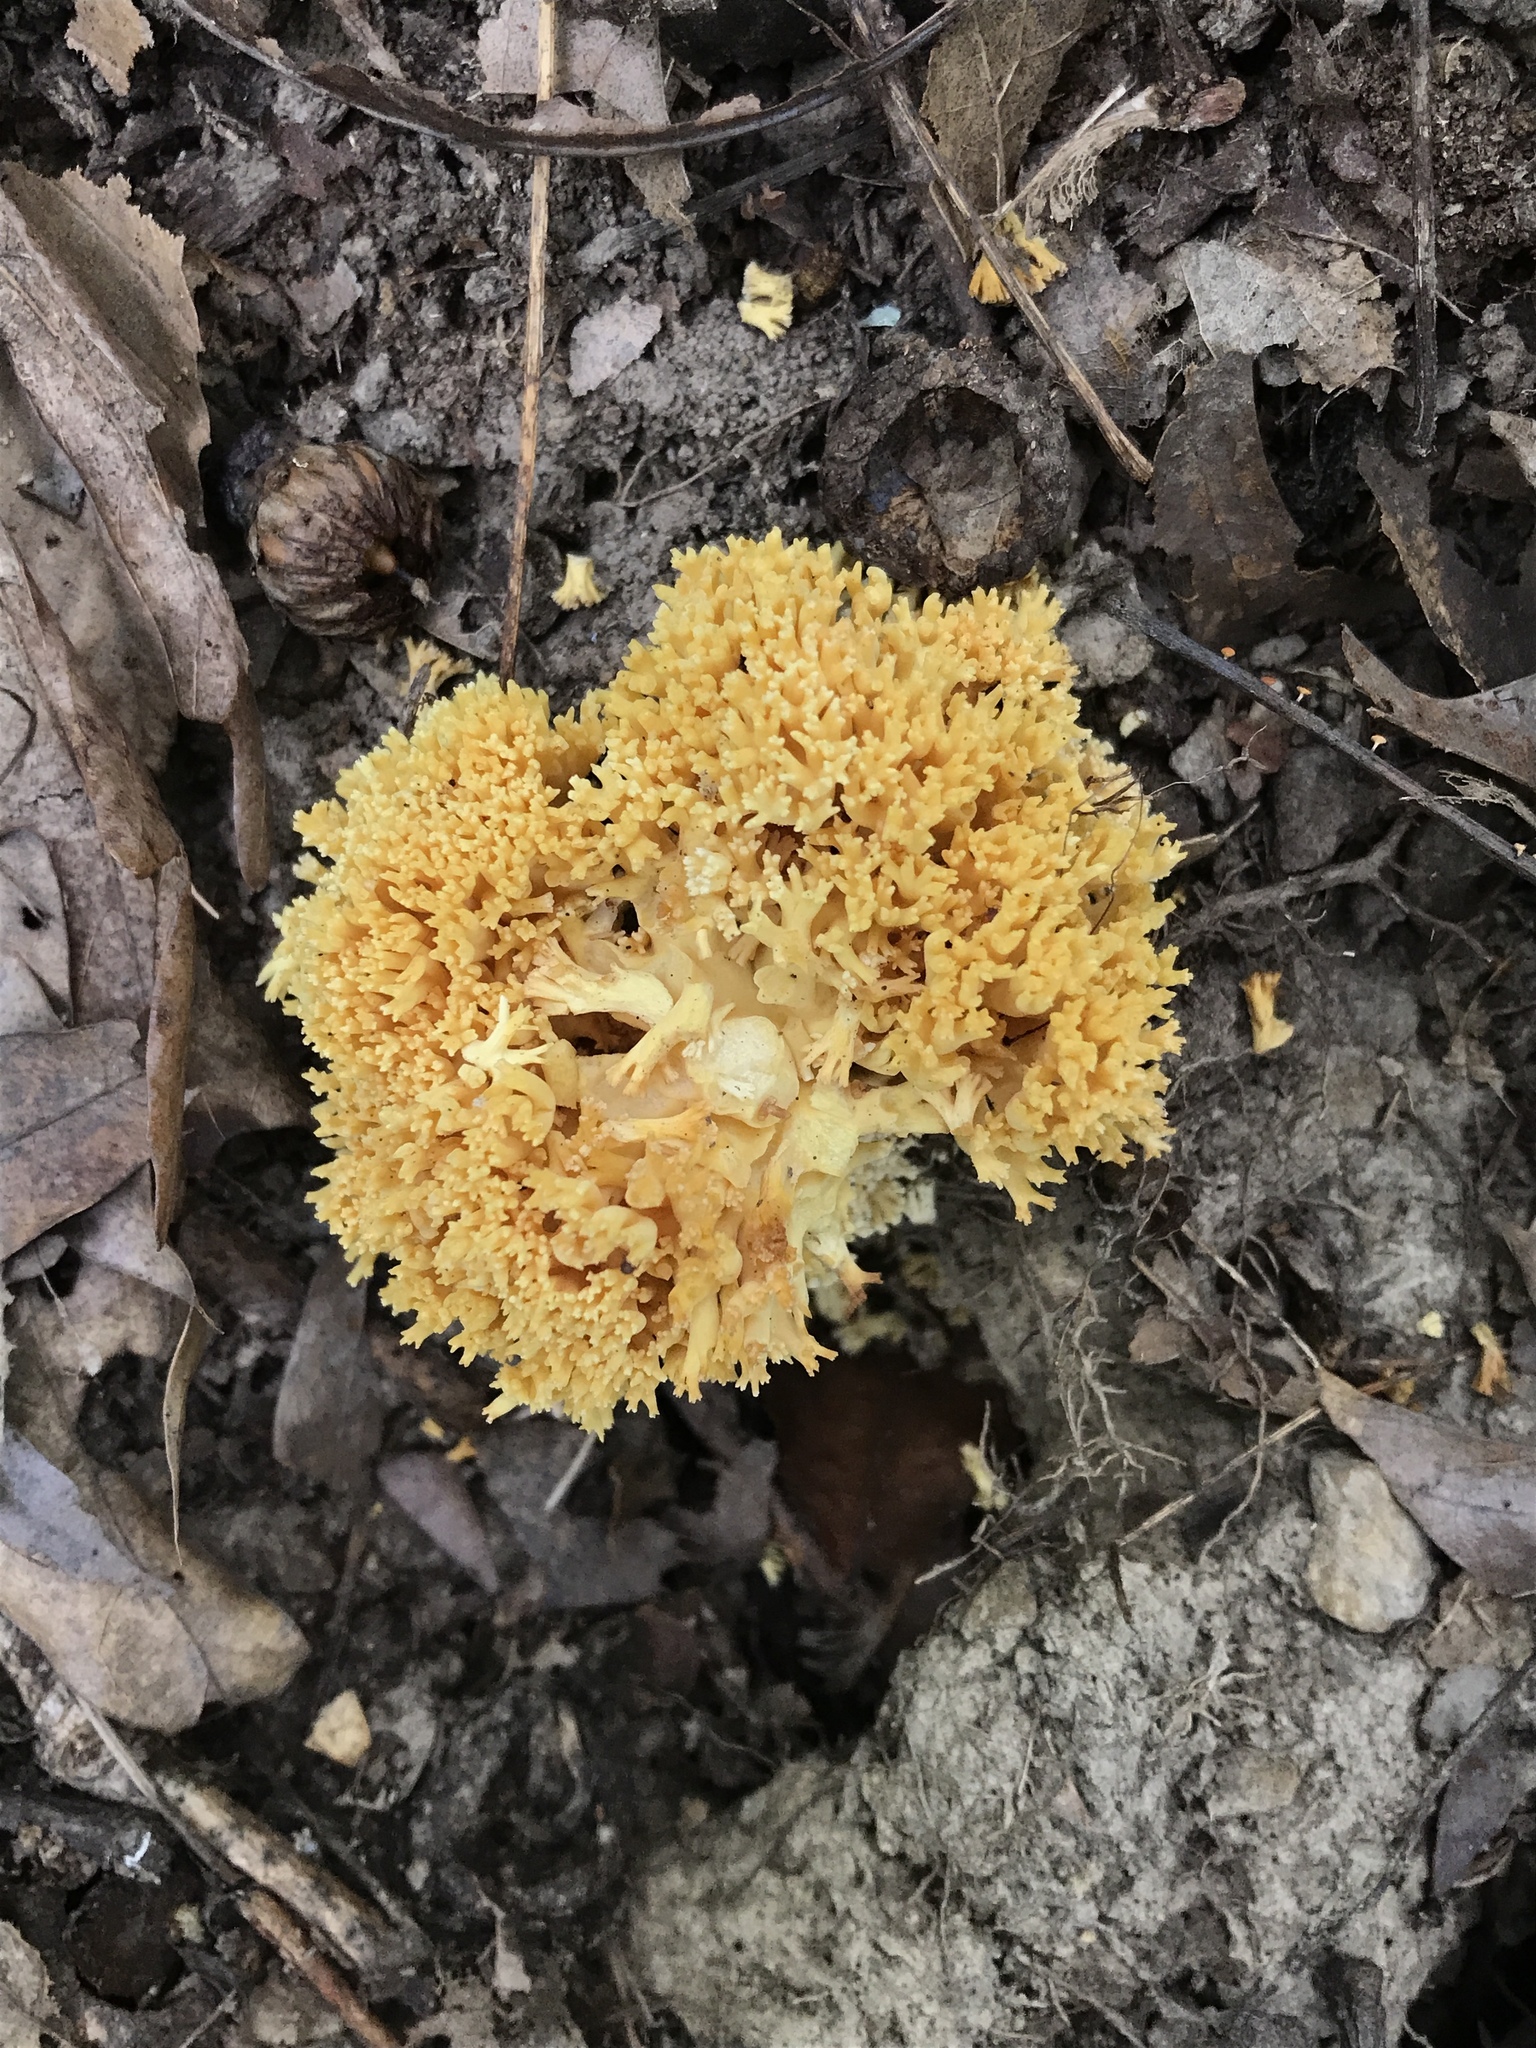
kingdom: Fungi
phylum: Basidiomycota
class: Agaricomycetes
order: Gomphales
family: Gomphaceae
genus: Ramaria
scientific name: Ramaria caulifloriformis
